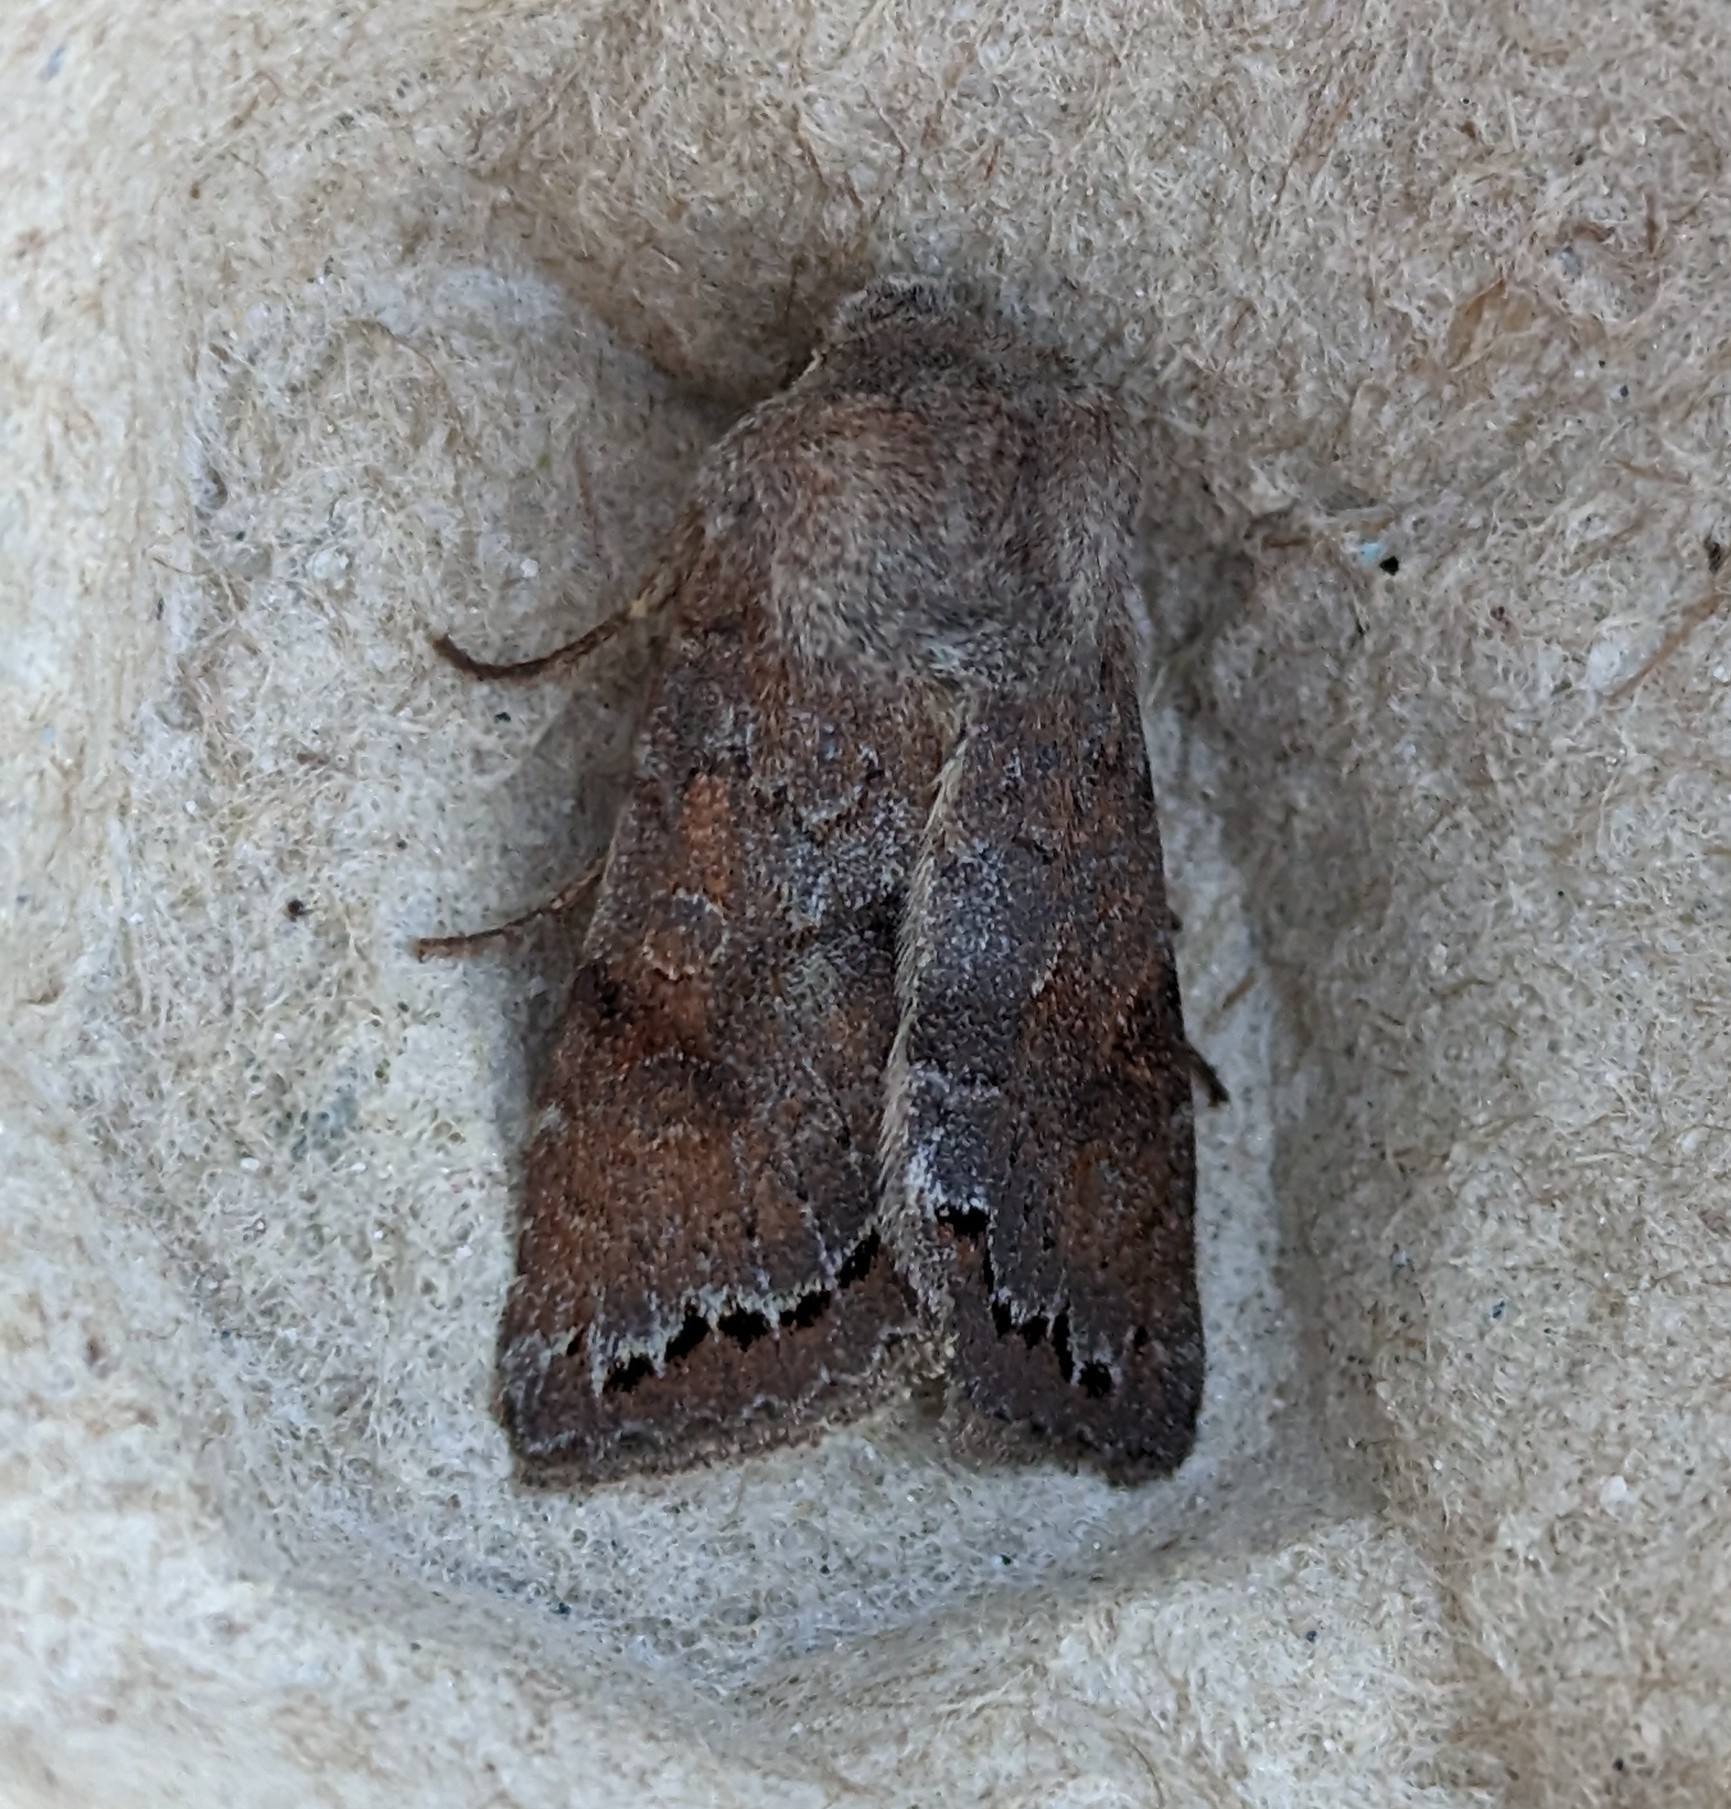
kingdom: Animalia
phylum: Arthropoda
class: Insecta
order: Lepidoptera
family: Noctuidae
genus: Orthosia
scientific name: Orthosia revicta
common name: Rusty whitesided caterpillar
